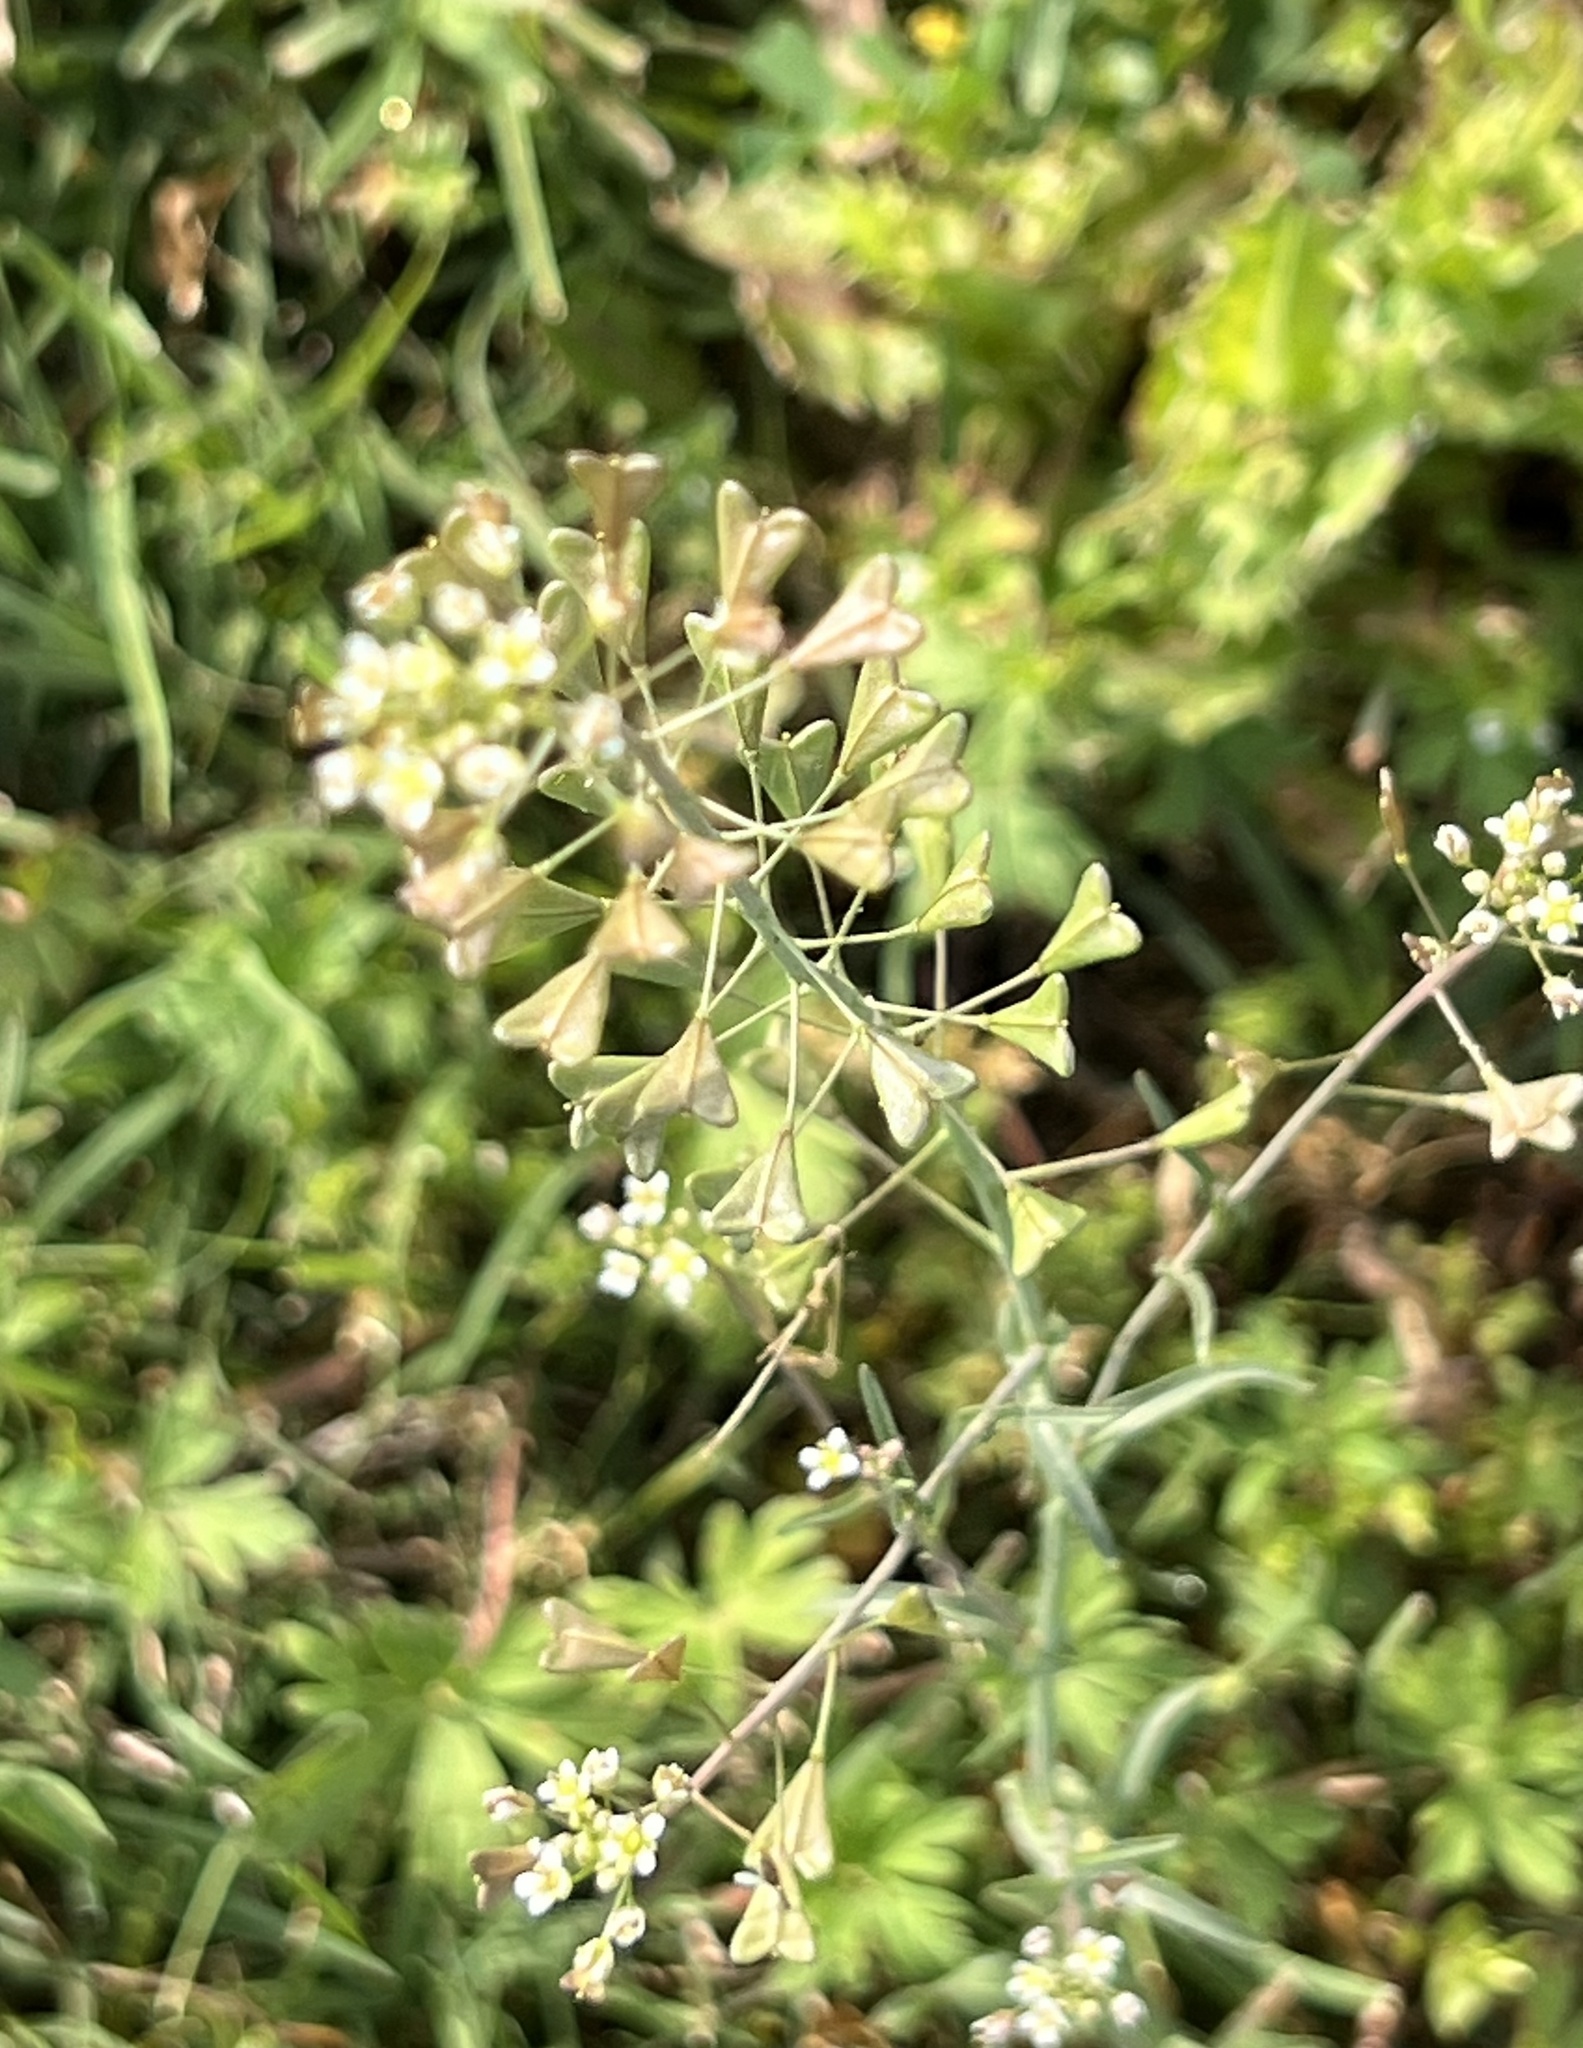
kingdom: Plantae
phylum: Tracheophyta
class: Magnoliopsida
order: Brassicales
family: Brassicaceae
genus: Capsella
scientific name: Capsella bursa-pastoris
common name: Shepherd's purse
